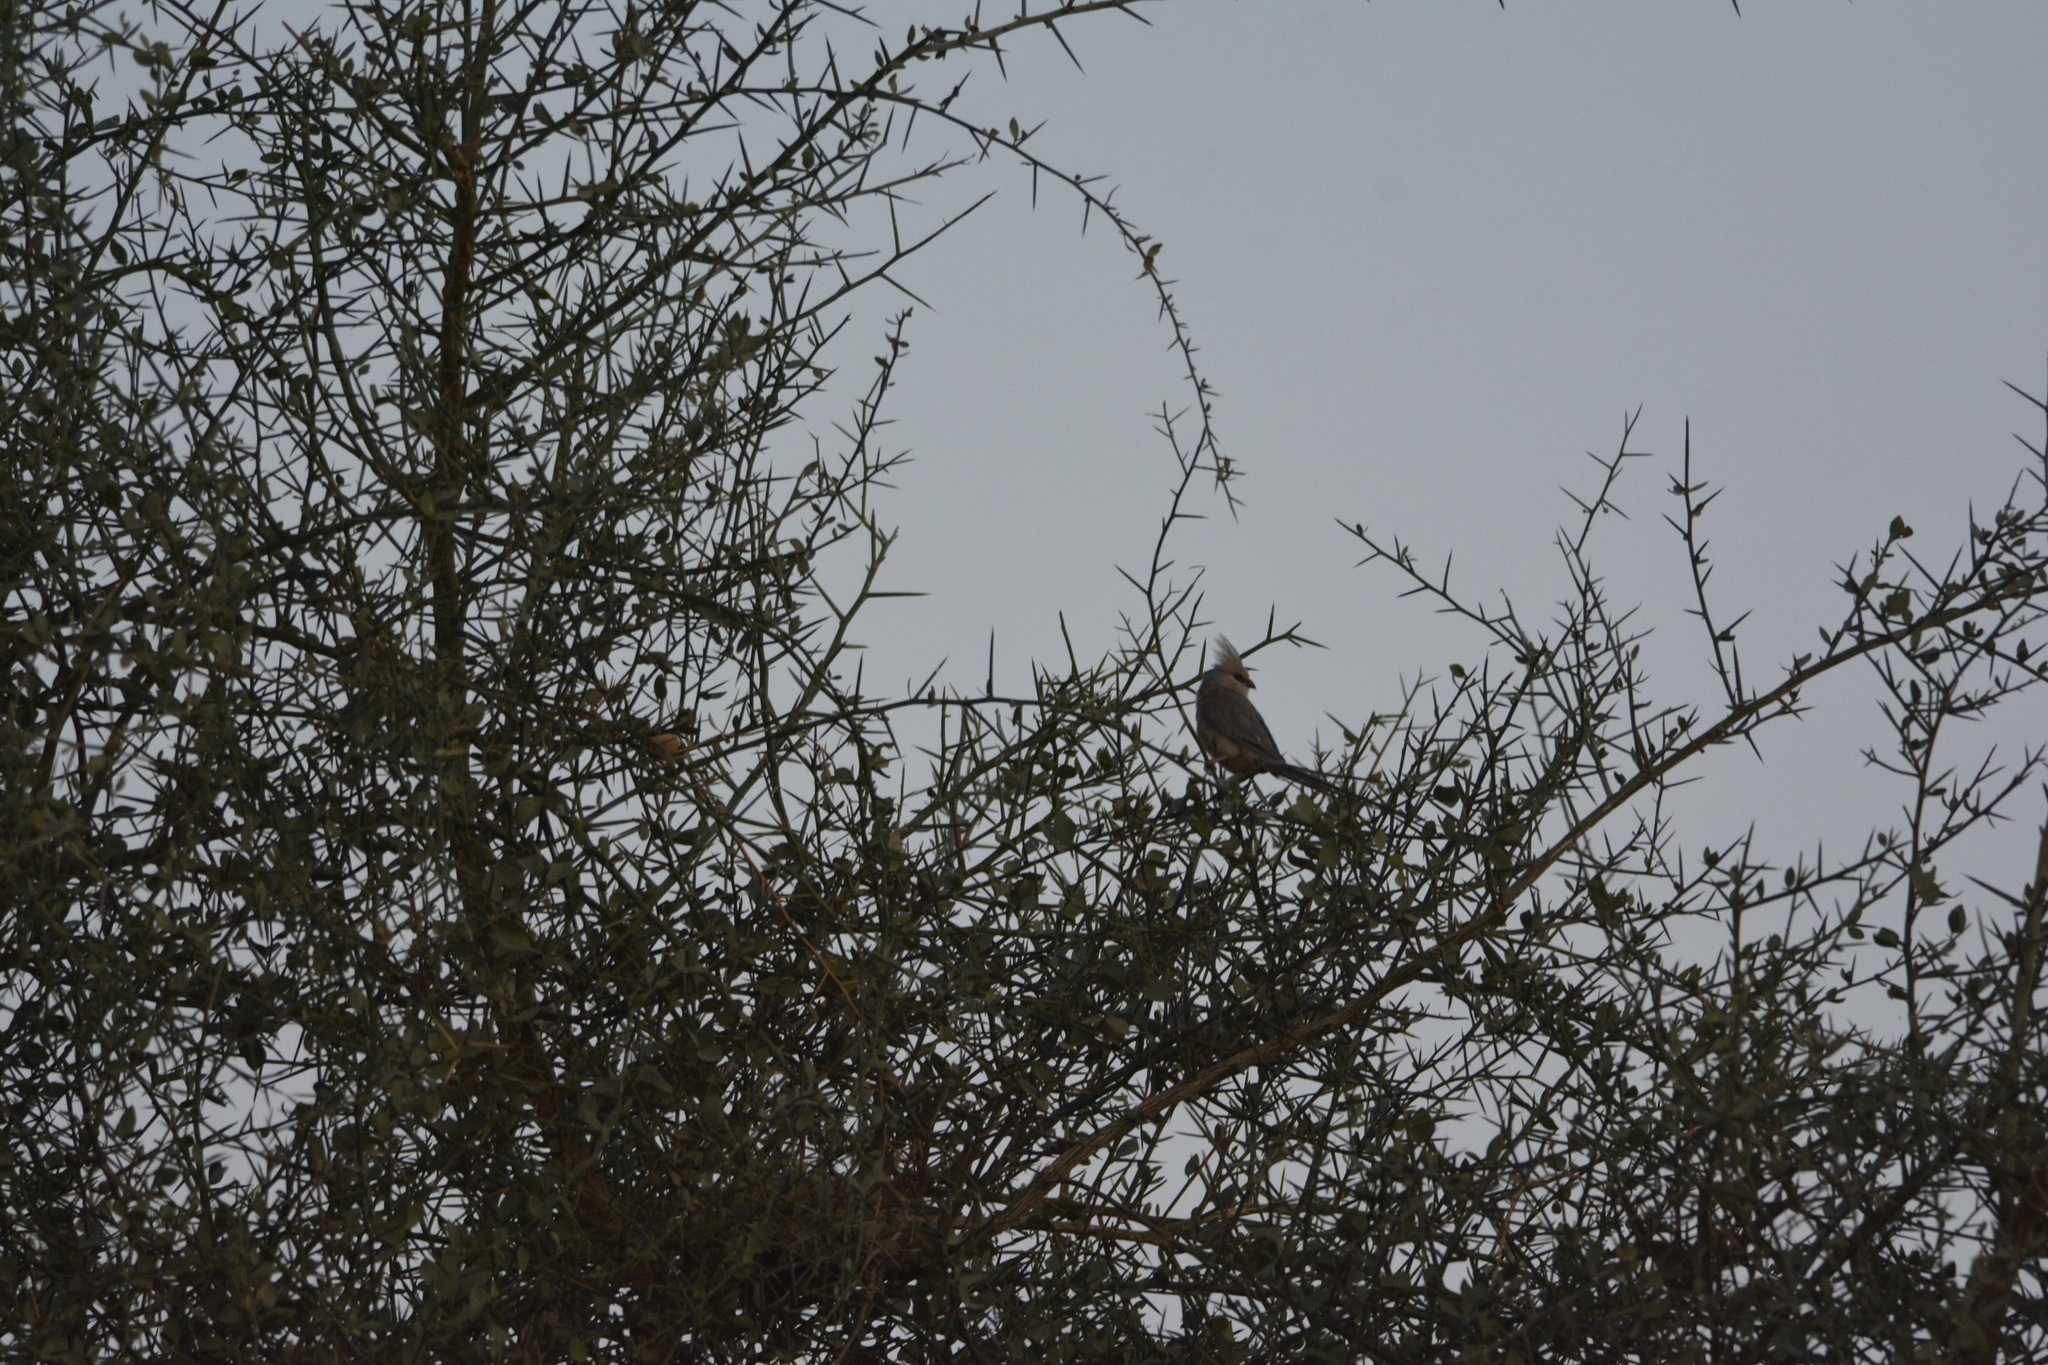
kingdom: Animalia
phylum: Chordata
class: Aves
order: Coliiformes
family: Coliidae
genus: Urocolius
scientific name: Urocolius macrourus
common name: Blue-naped mousebird
